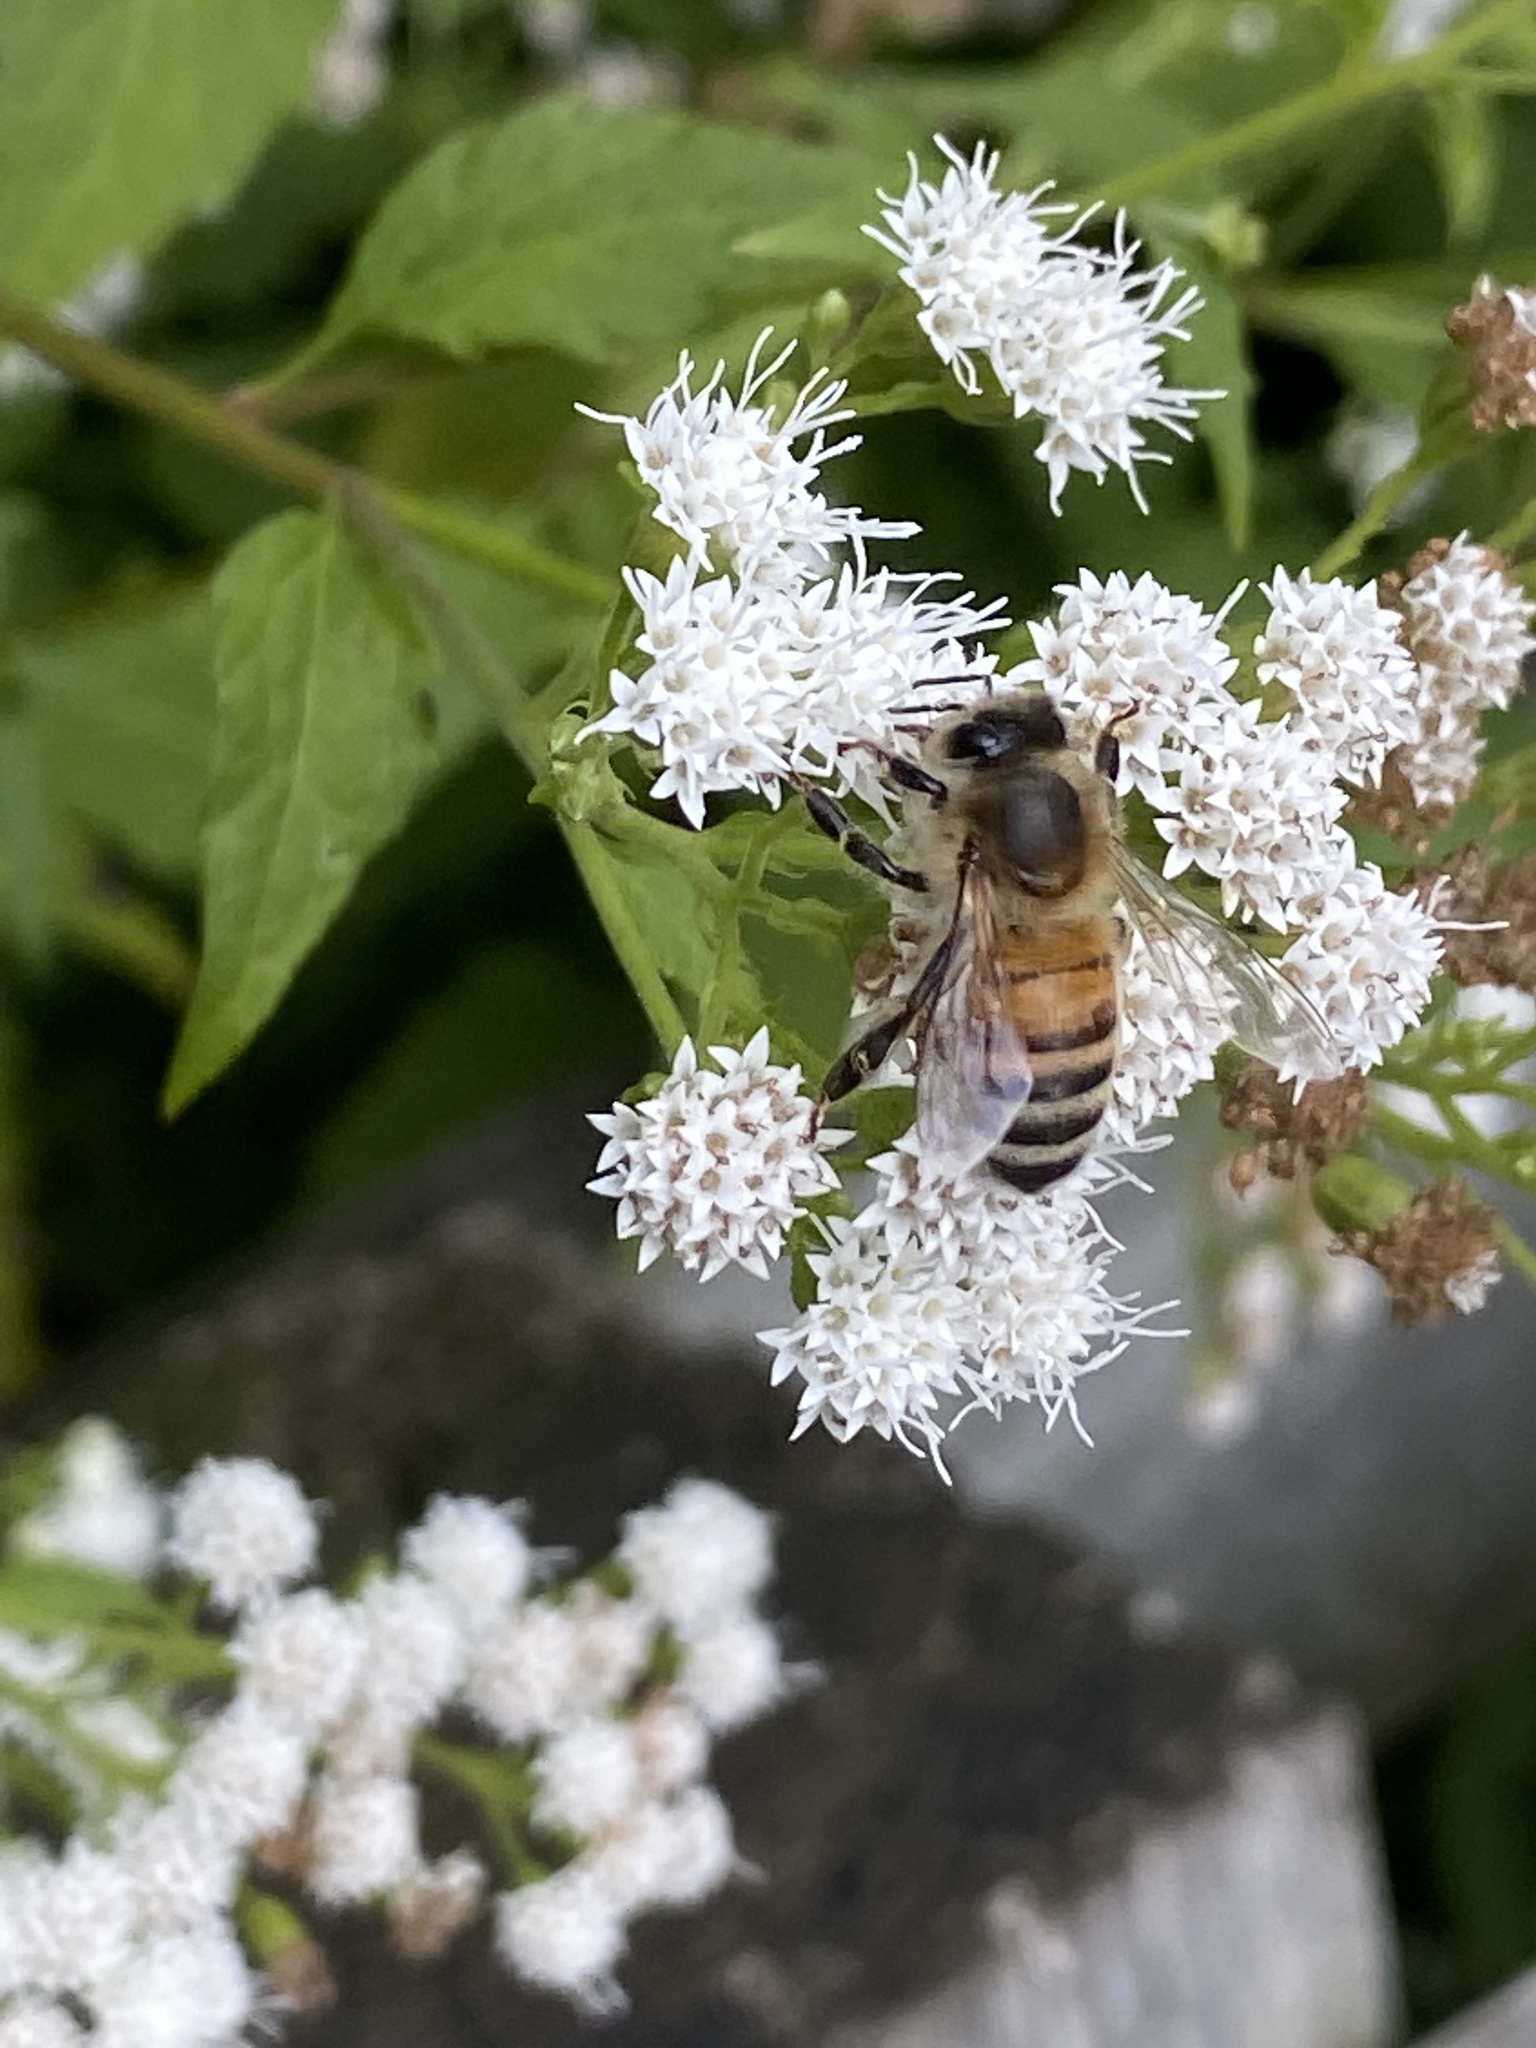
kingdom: Animalia
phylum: Arthropoda
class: Insecta
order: Hymenoptera
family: Apidae
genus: Apis
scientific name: Apis mellifera
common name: Honey bee
